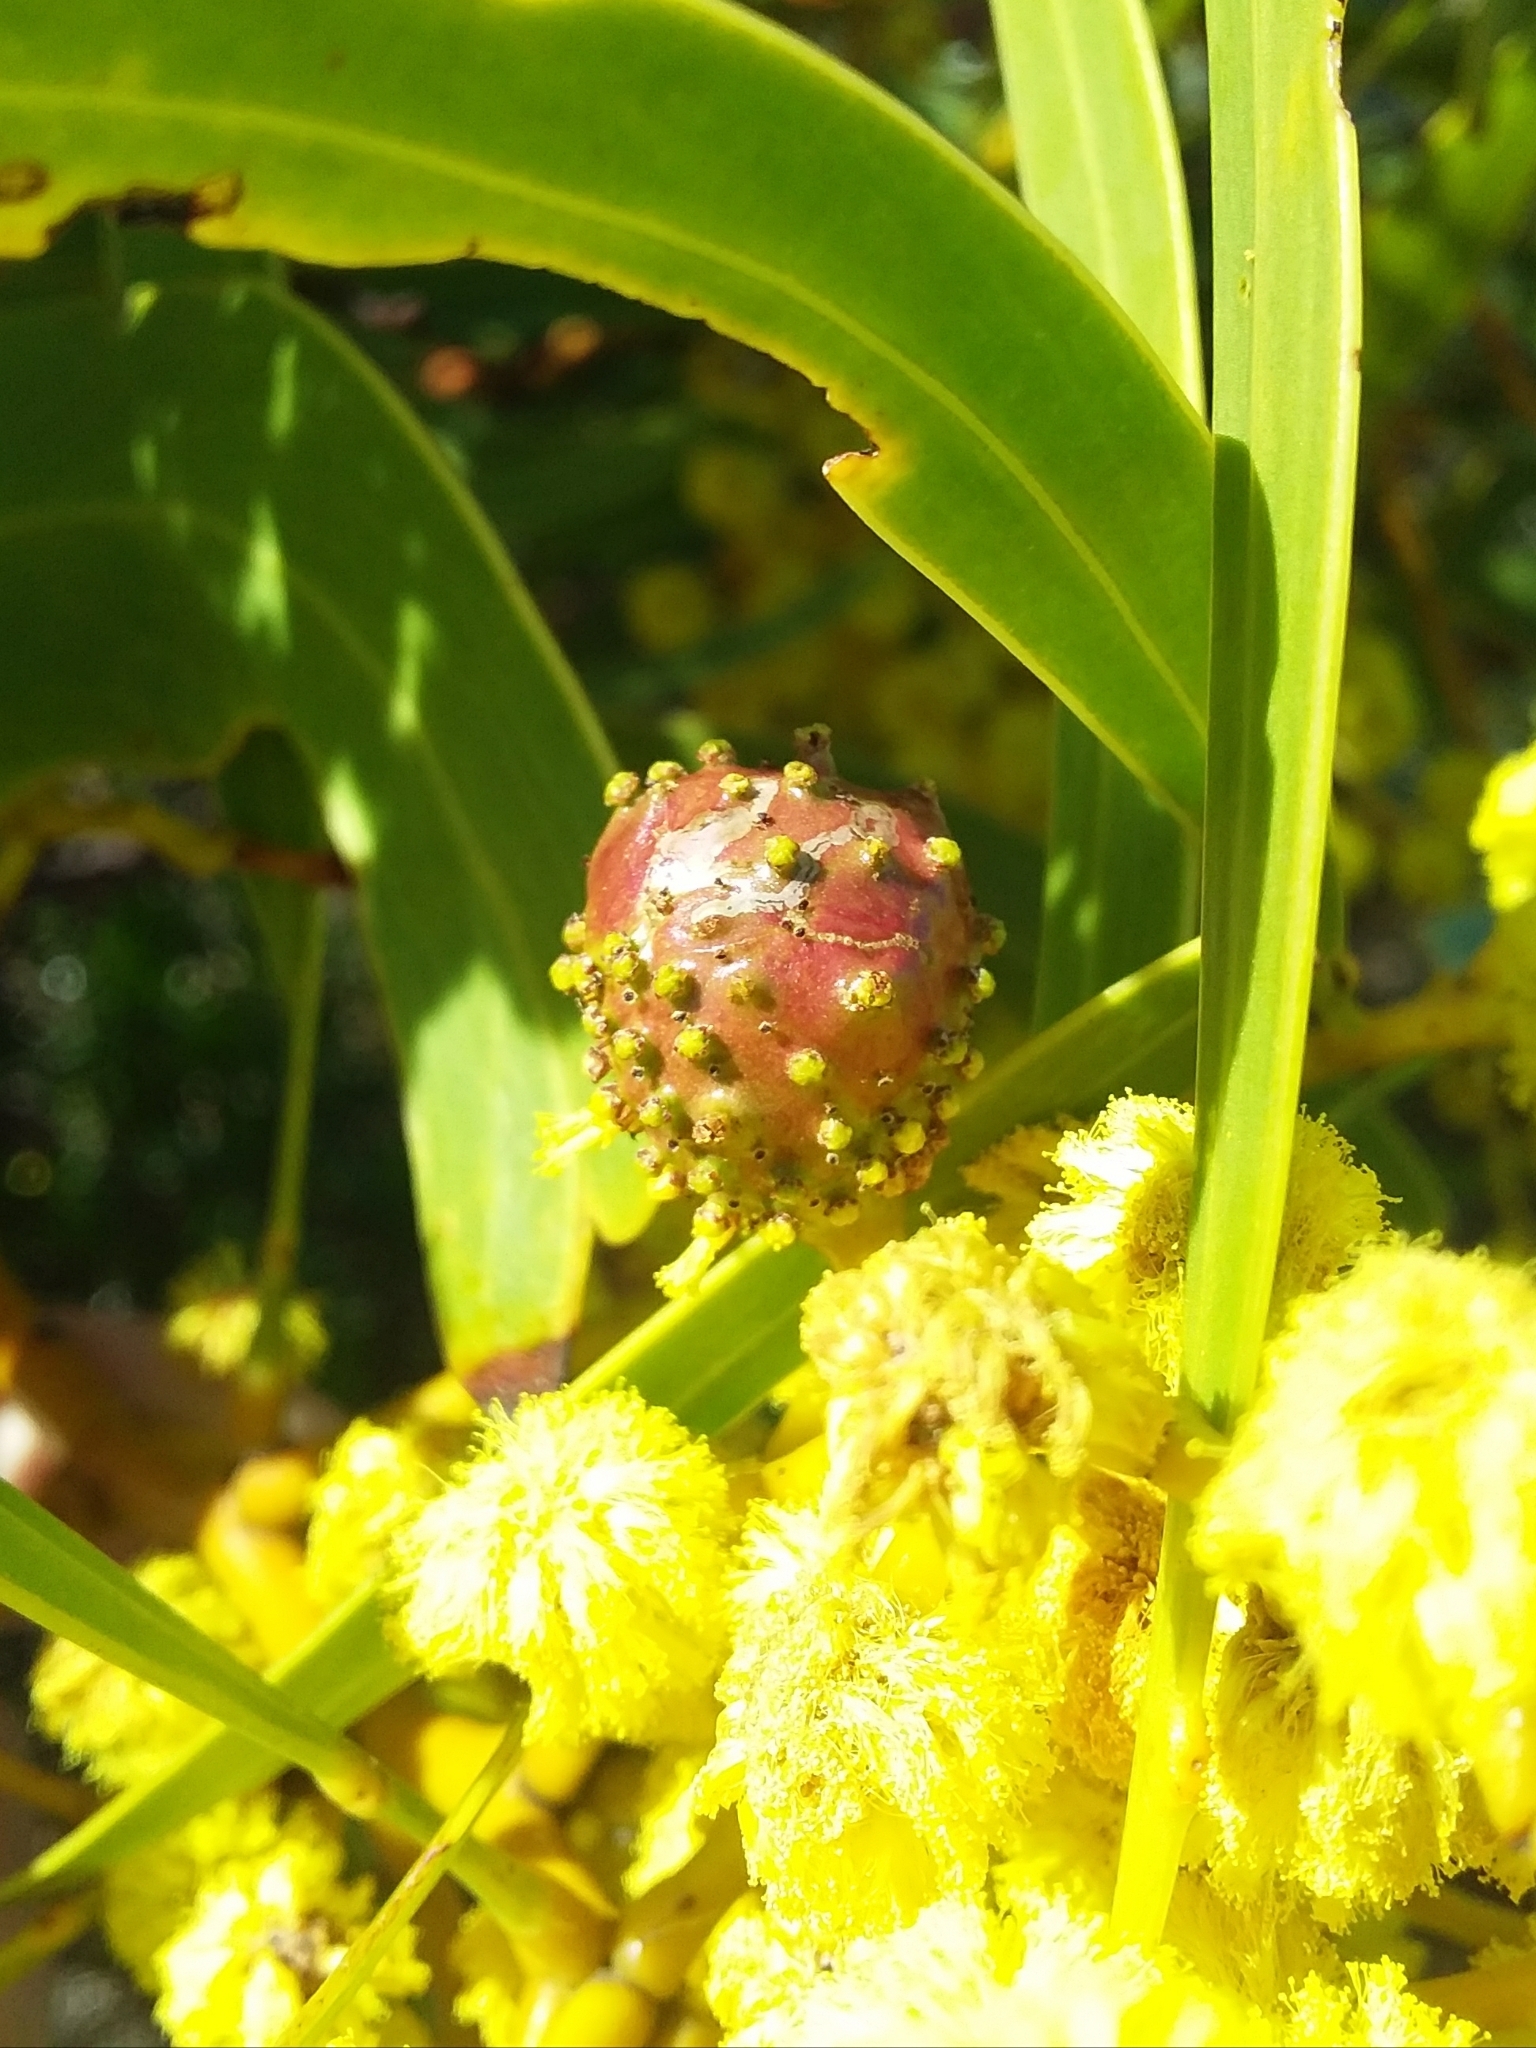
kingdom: Animalia
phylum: Arthropoda
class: Insecta
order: Hymenoptera
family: Pteromalidae
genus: Trichilogaster
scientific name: Trichilogaster signiventris
